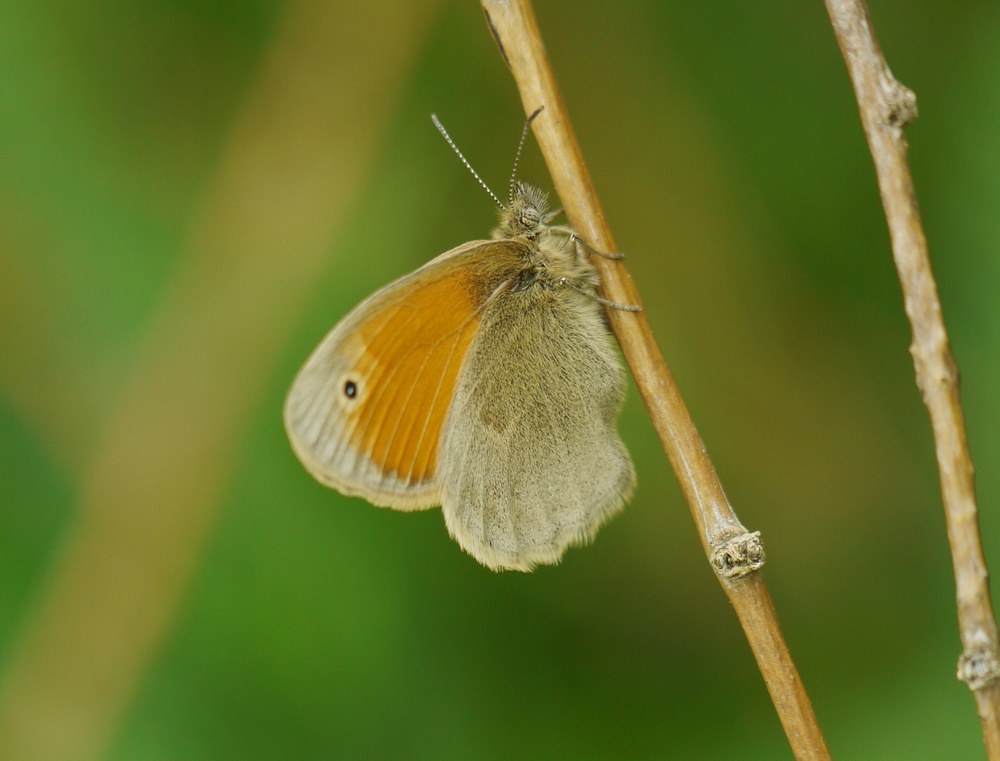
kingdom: Animalia
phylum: Arthropoda
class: Insecta
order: Lepidoptera
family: Nymphalidae
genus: Coenonympha
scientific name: Coenonympha pamphilus
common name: Small heath
